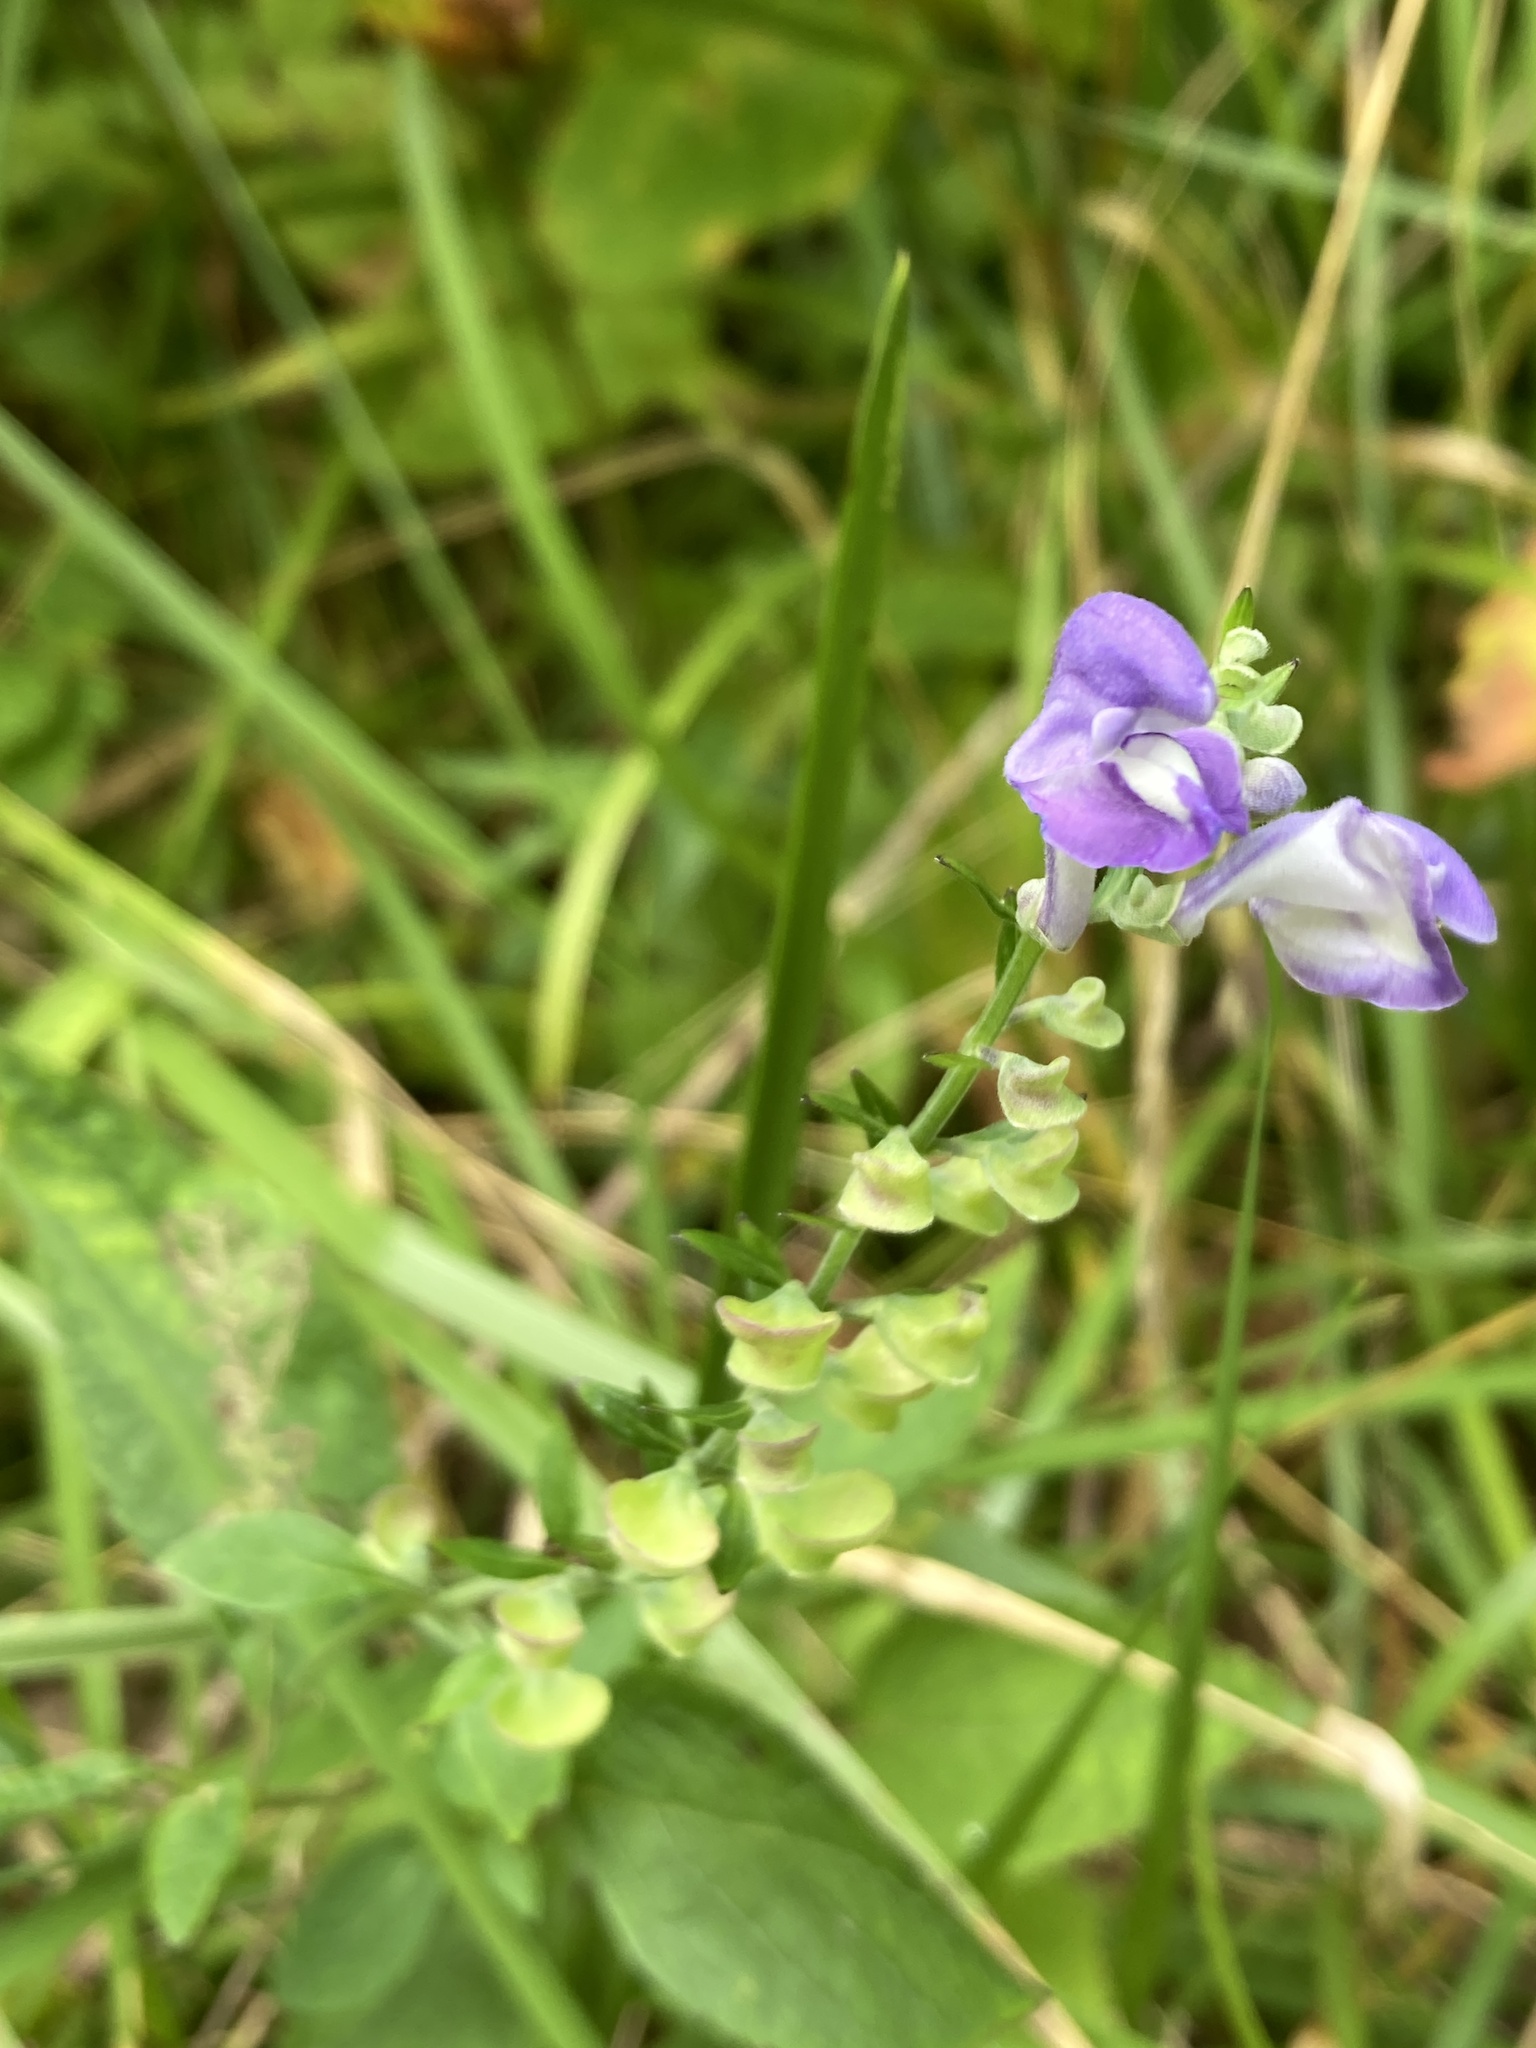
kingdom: Plantae
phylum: Tracheophyta
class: Magnoliopsida
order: Lamiales
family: Lamiaceae
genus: Scutellaria
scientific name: Scutellaria incana
